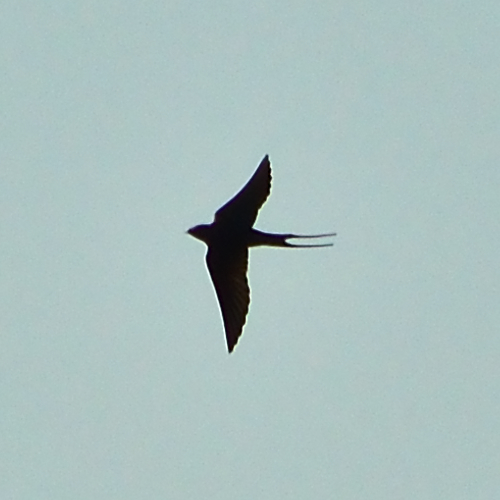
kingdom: Animalia
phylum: Chordata
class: Aves
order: Passeriformes
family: Hirundinidae
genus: Hirundo
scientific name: Hirundo rustica
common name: Barn swallow
